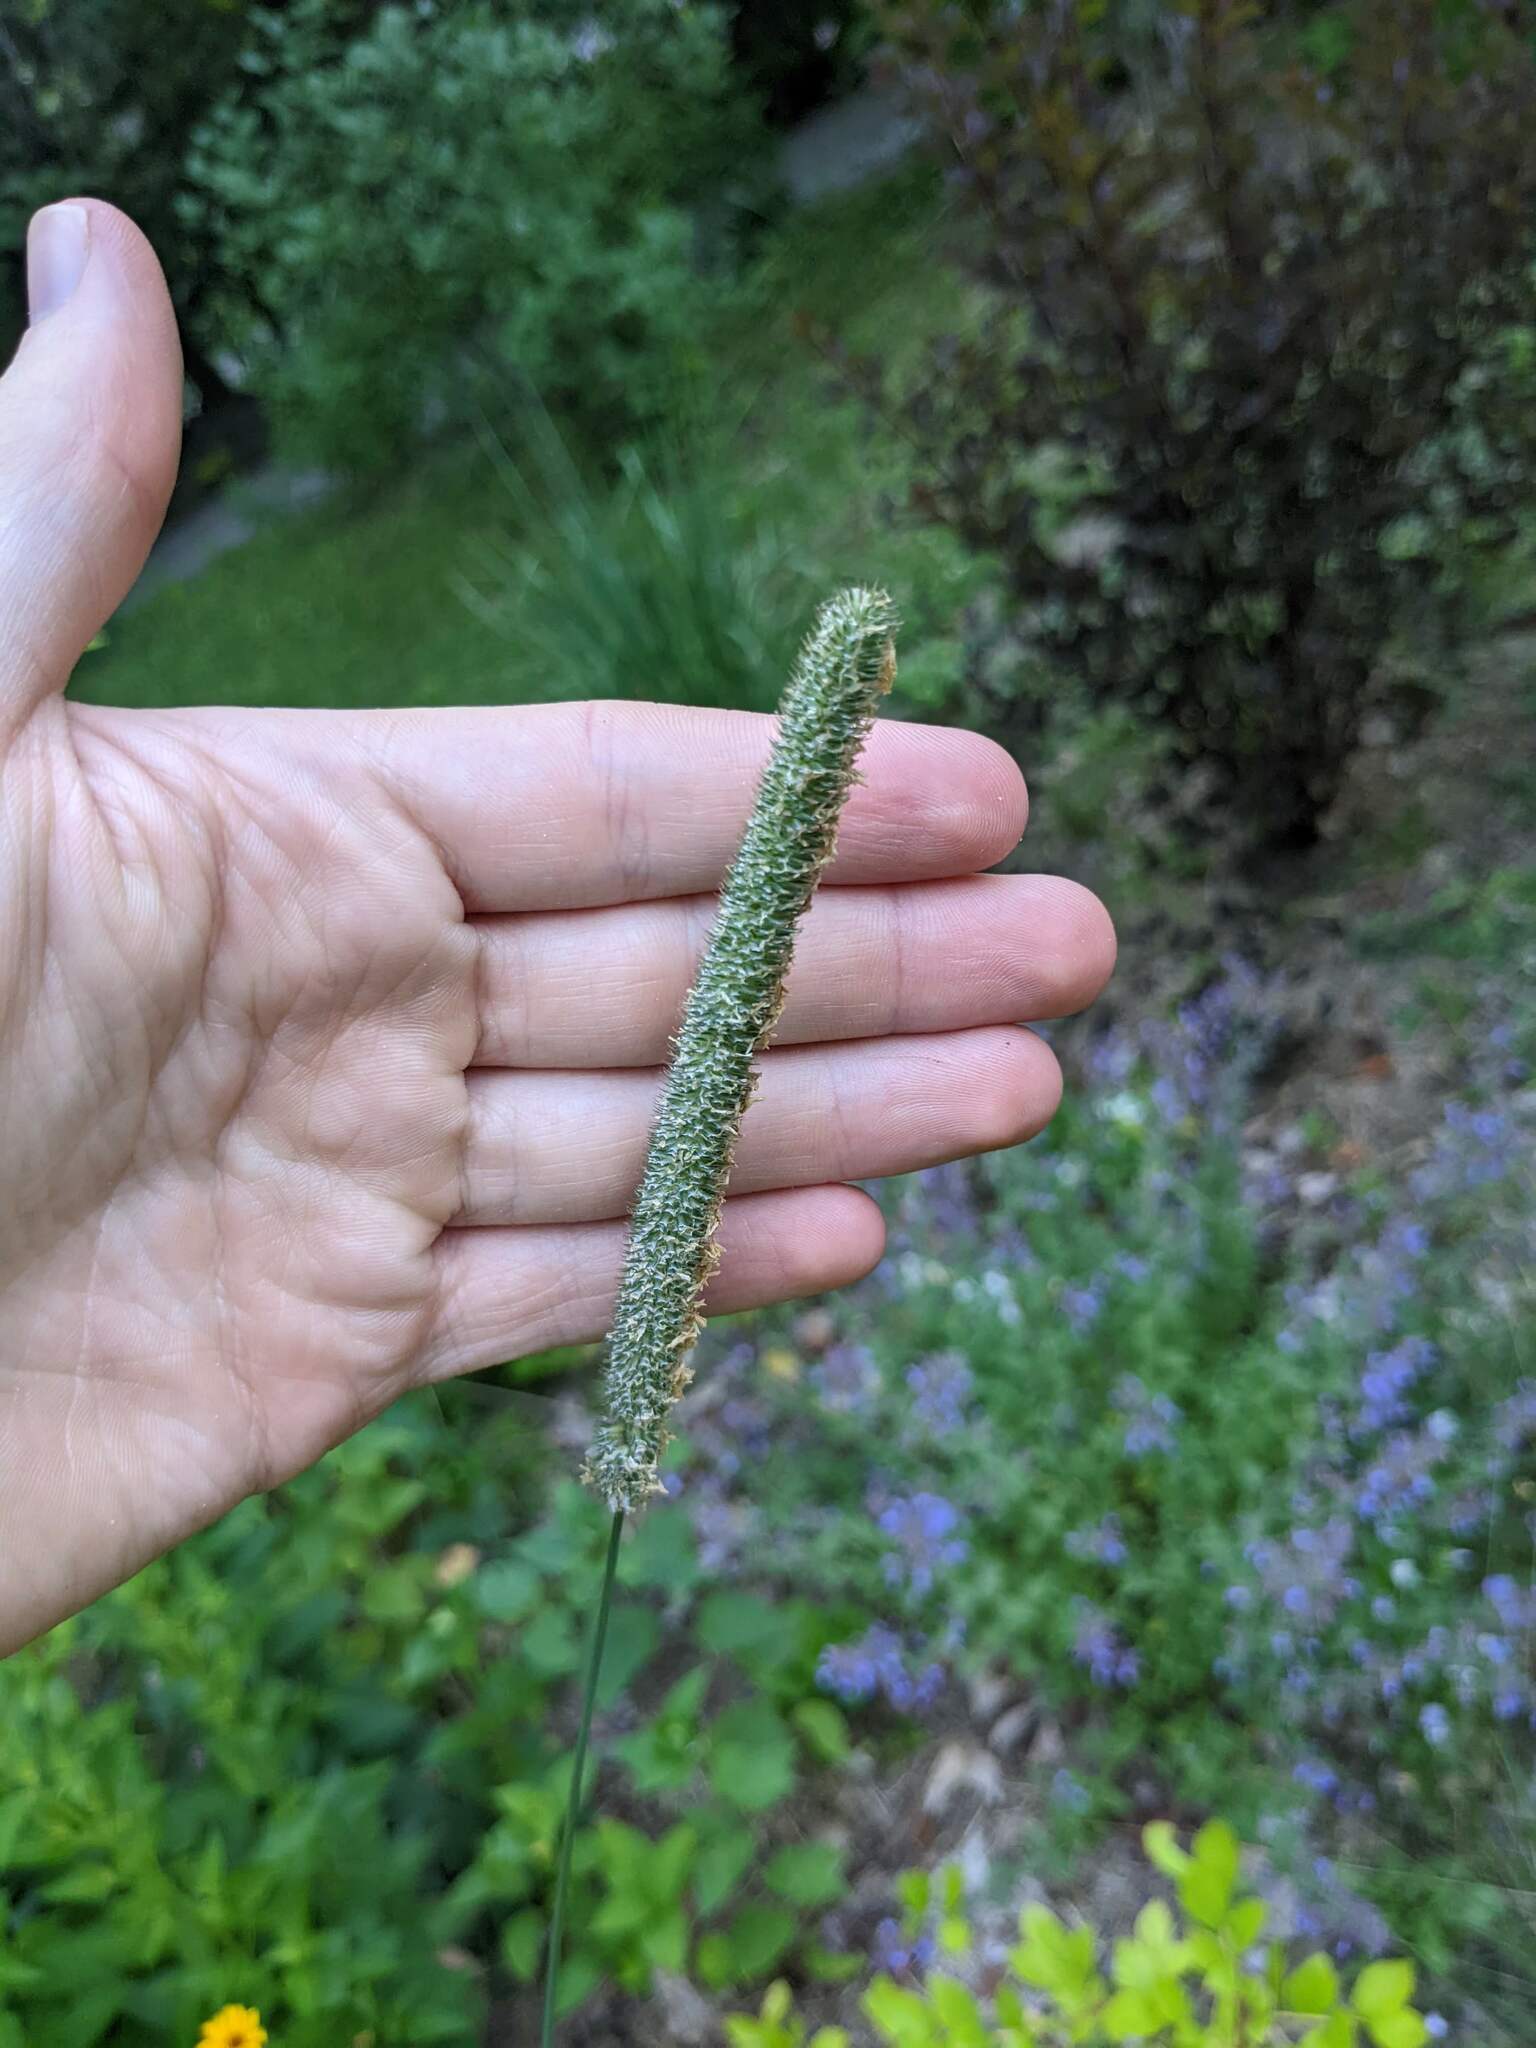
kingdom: Plantae
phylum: Tracheophyta
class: Liliopsida
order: Poales
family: Poaceae
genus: Phleum
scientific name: Phleum pratense
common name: Timothy grass
